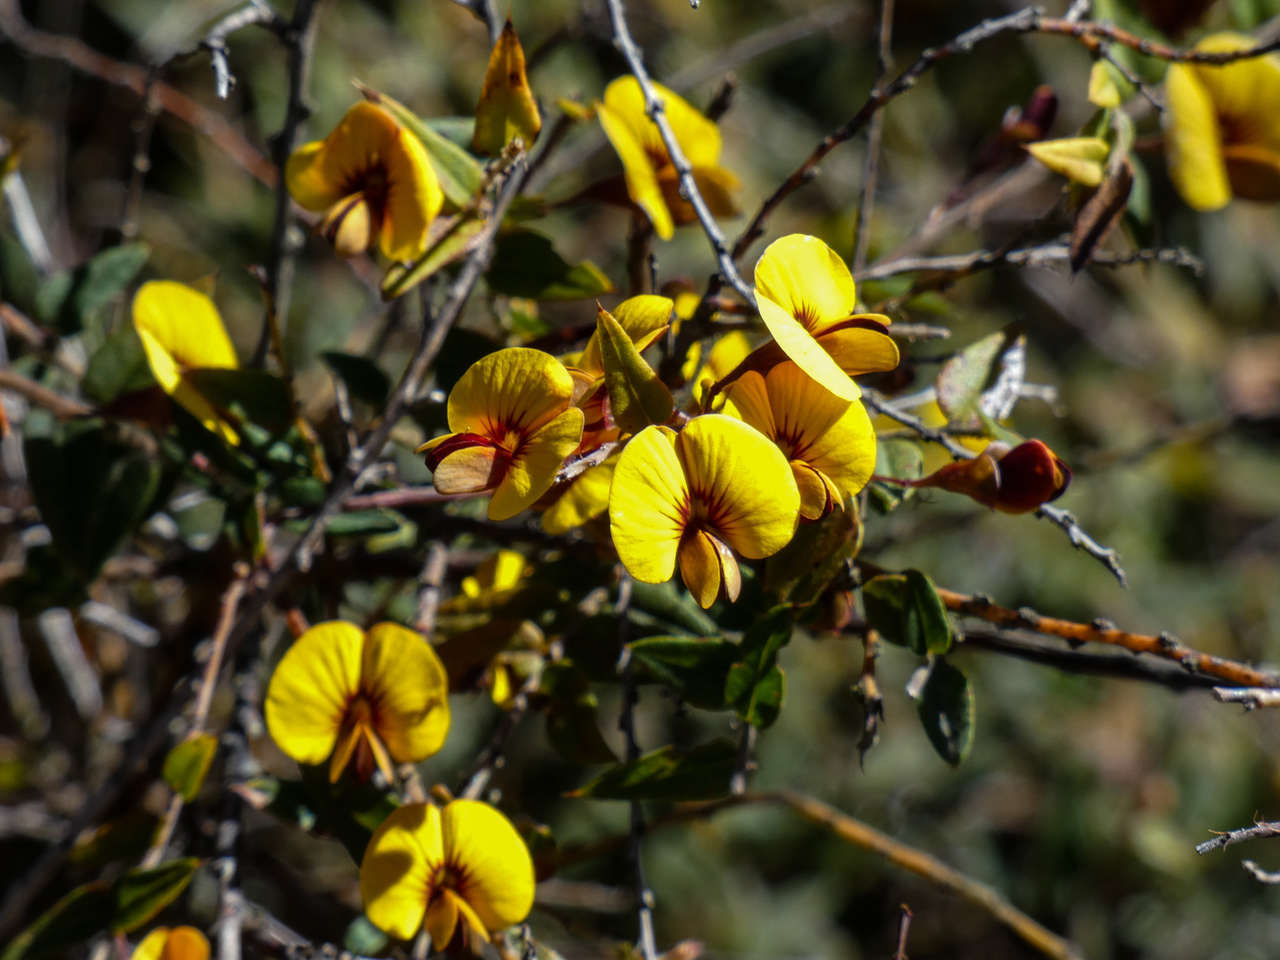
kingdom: Plantae
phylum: Tracheophyta
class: Magnoliopsida
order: Fabales
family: Fabaceae
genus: Bossiaea
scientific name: Bossiaea cinerea
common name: Showy bossiaea
